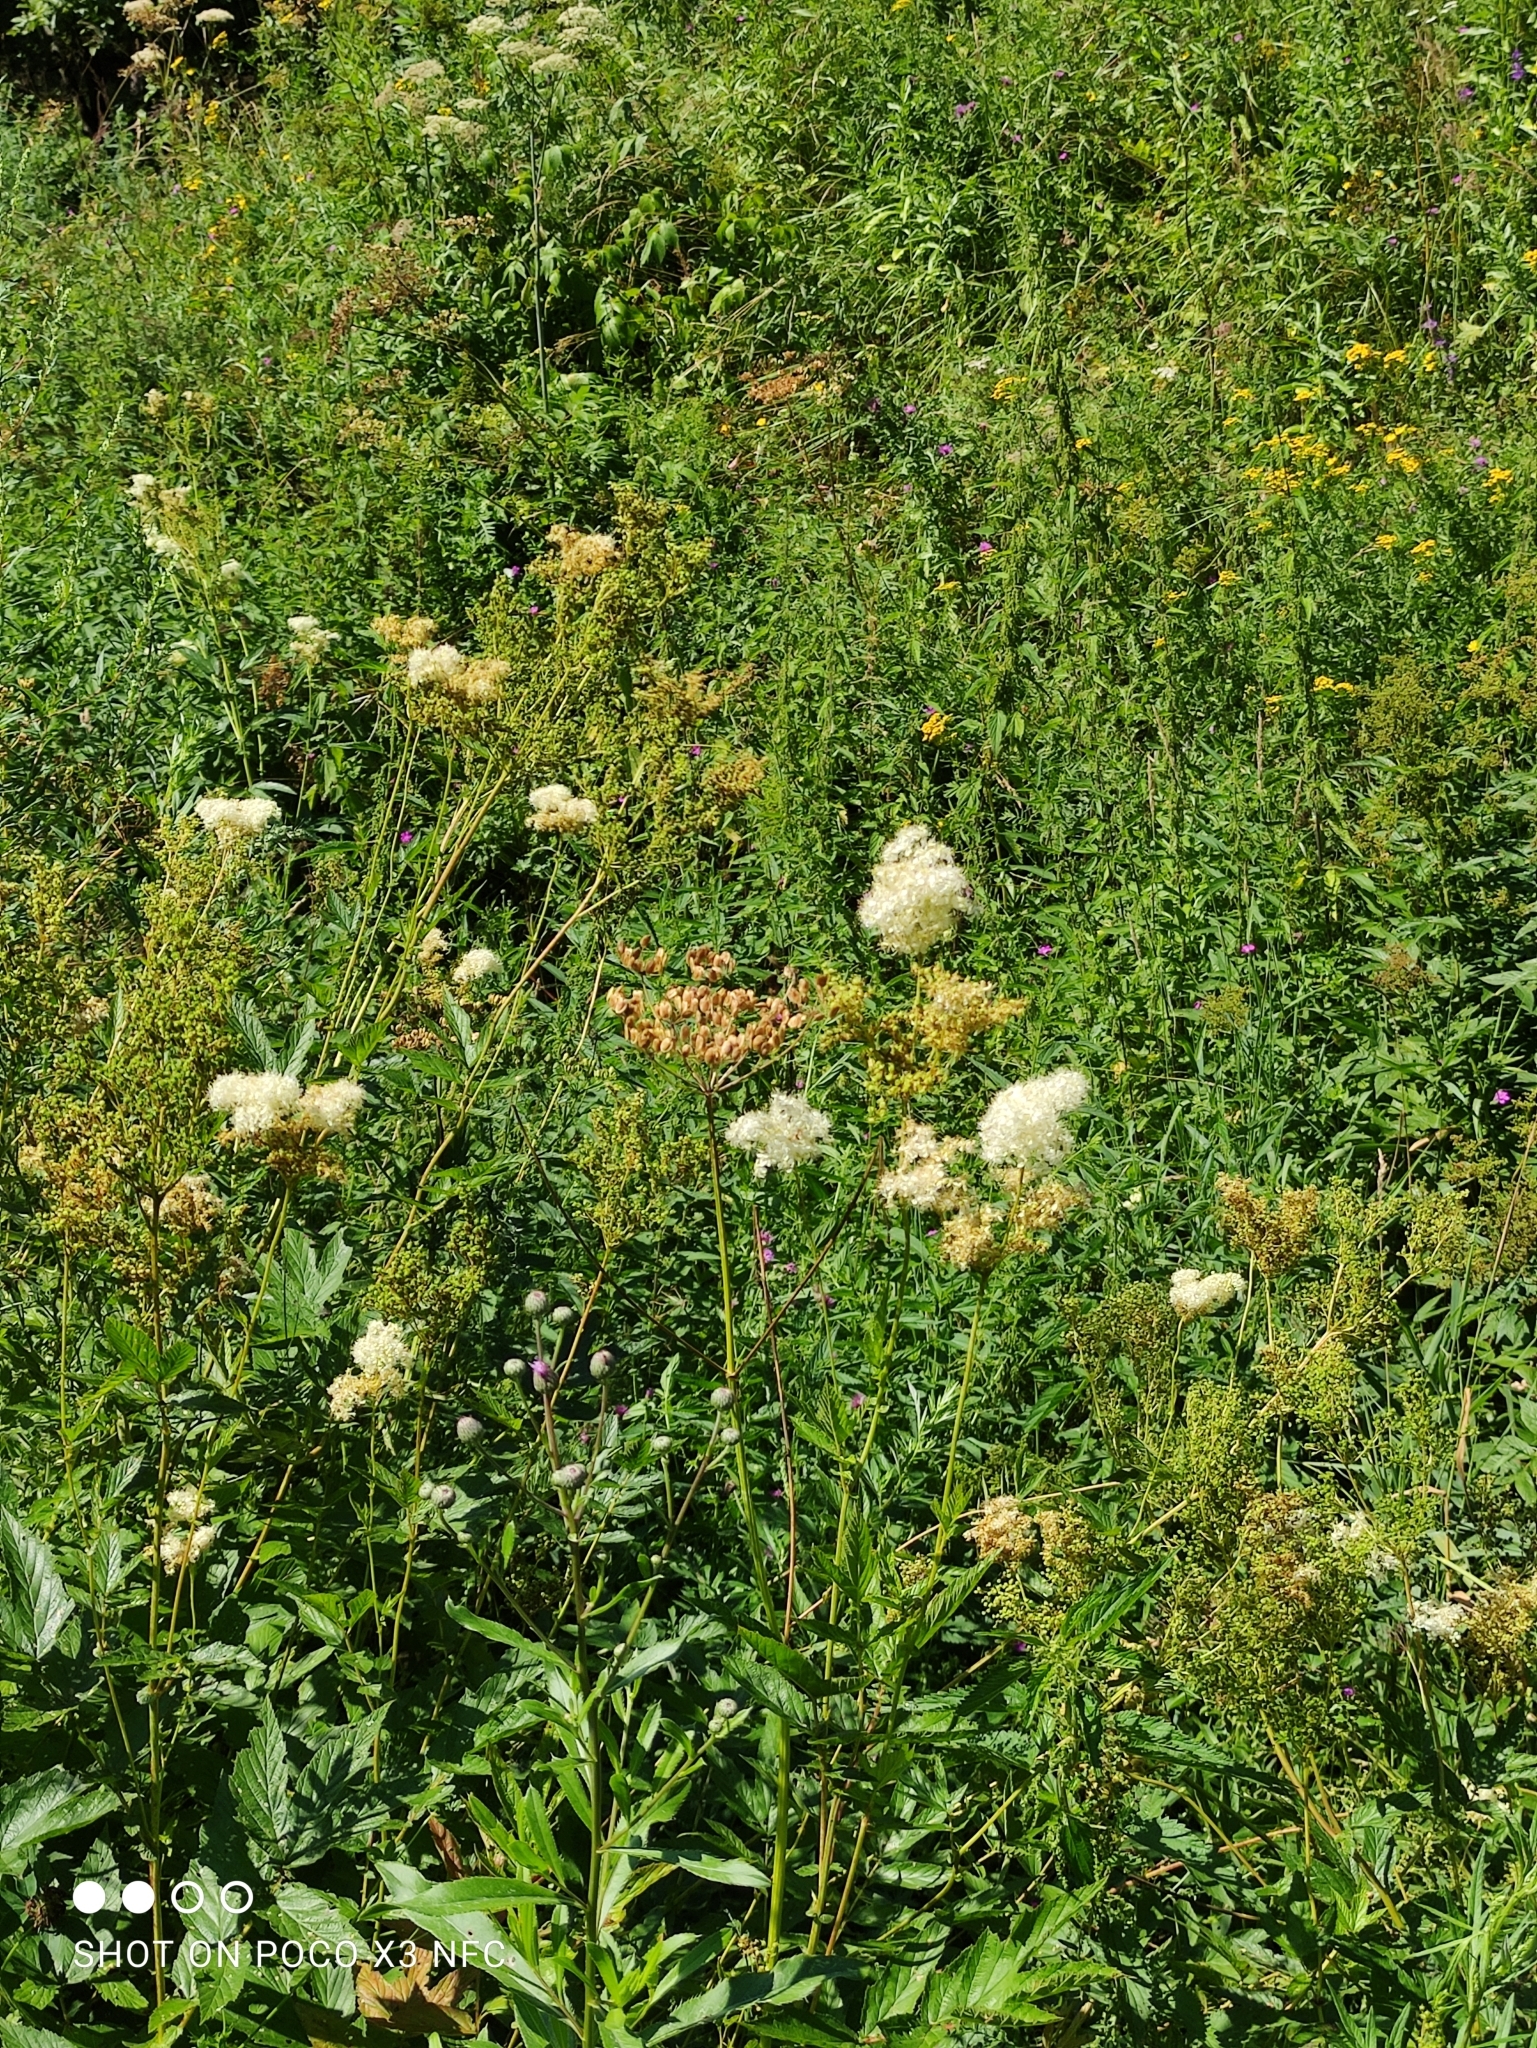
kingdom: Plantae
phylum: Tracheophyta
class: Magnoliopsida
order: Rosales
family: Rosaceae
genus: Filipendula
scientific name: Filipendula ulmaria
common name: Meadowsweet
